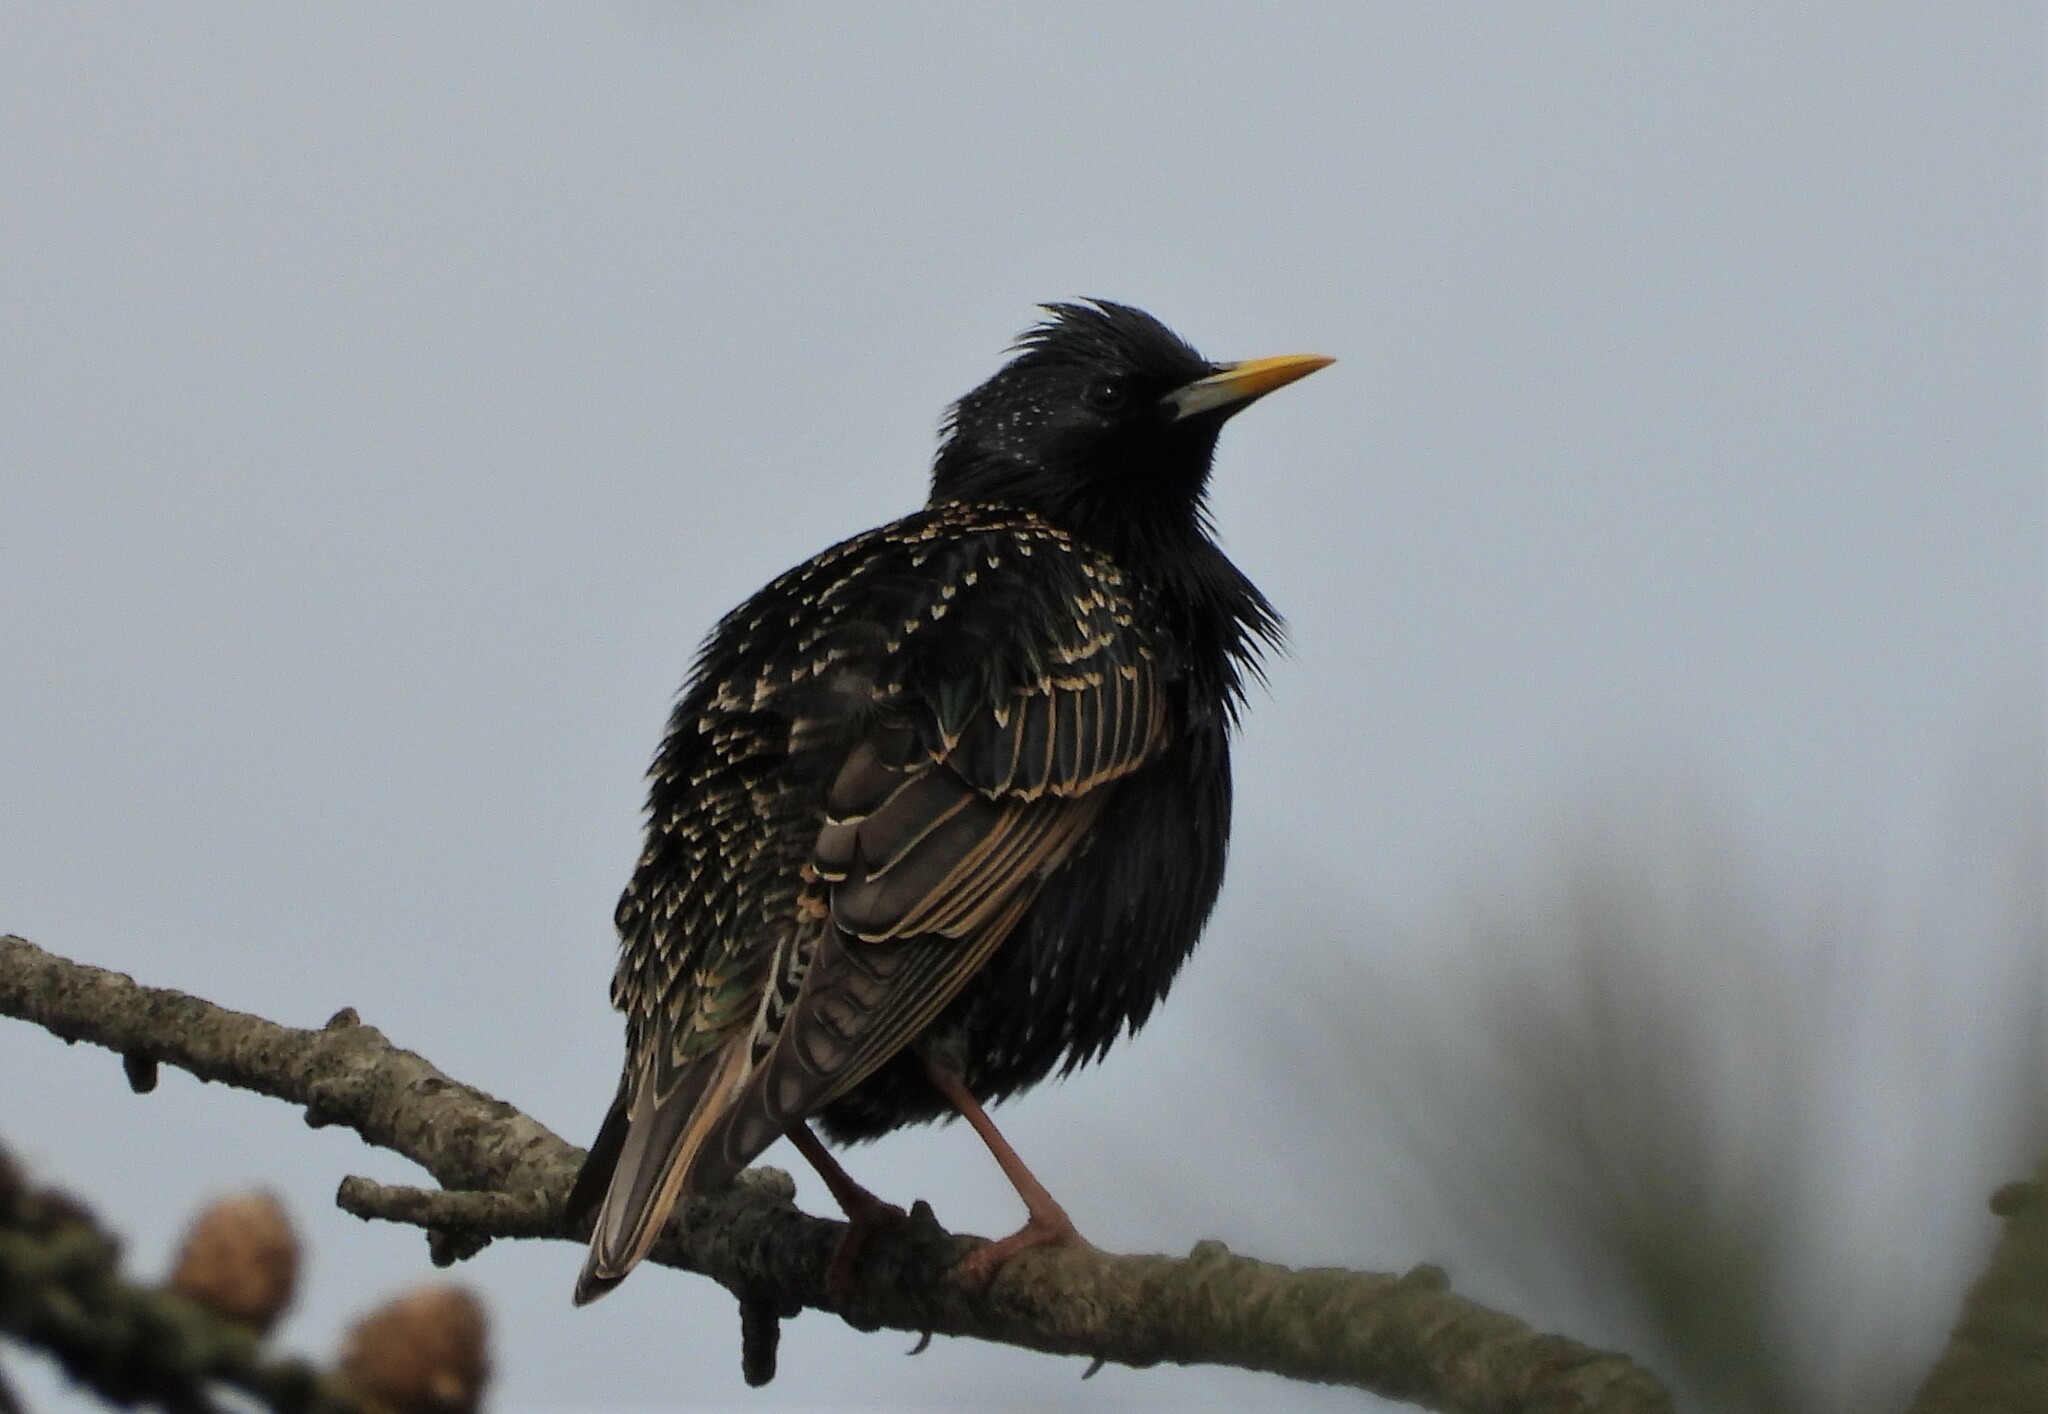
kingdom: Animalia
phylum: Chordata
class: Aves
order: Passeriformes
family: Sturnidae
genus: Sturnus
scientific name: Sturnus vulgaris
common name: Common starling
